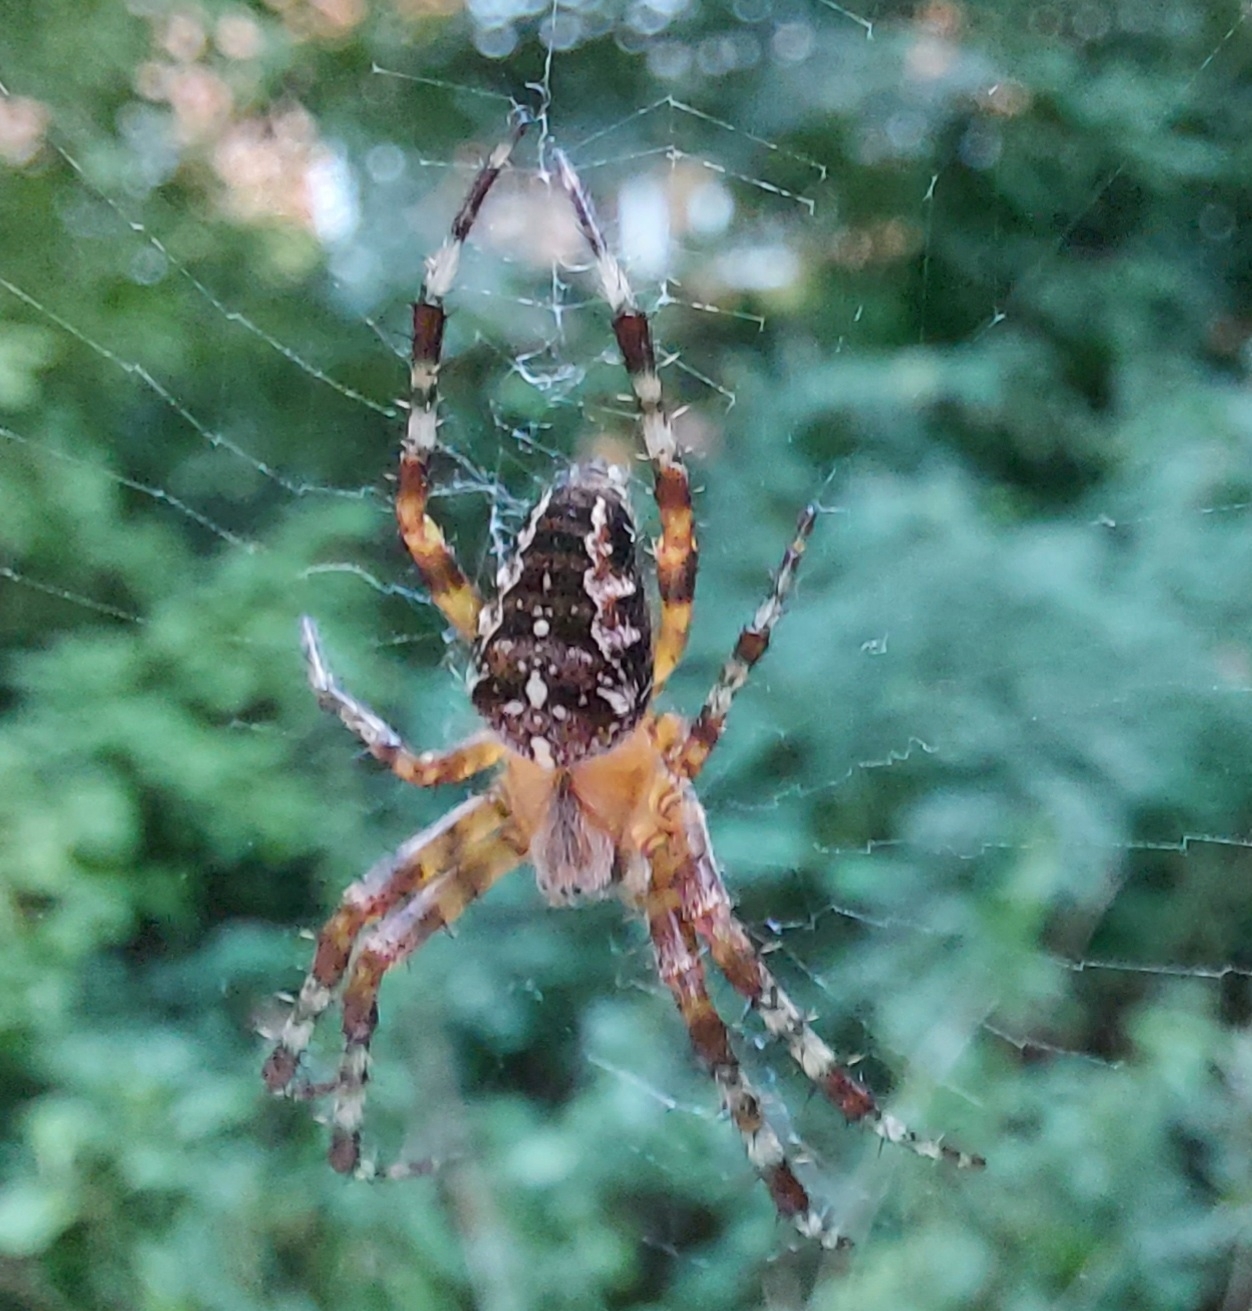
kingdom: Animalia
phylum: Arthropoda
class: Arachnida
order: Araneae
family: Araneidae
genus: Araneus
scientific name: Araneus diadematus
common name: Cross orbweaver
